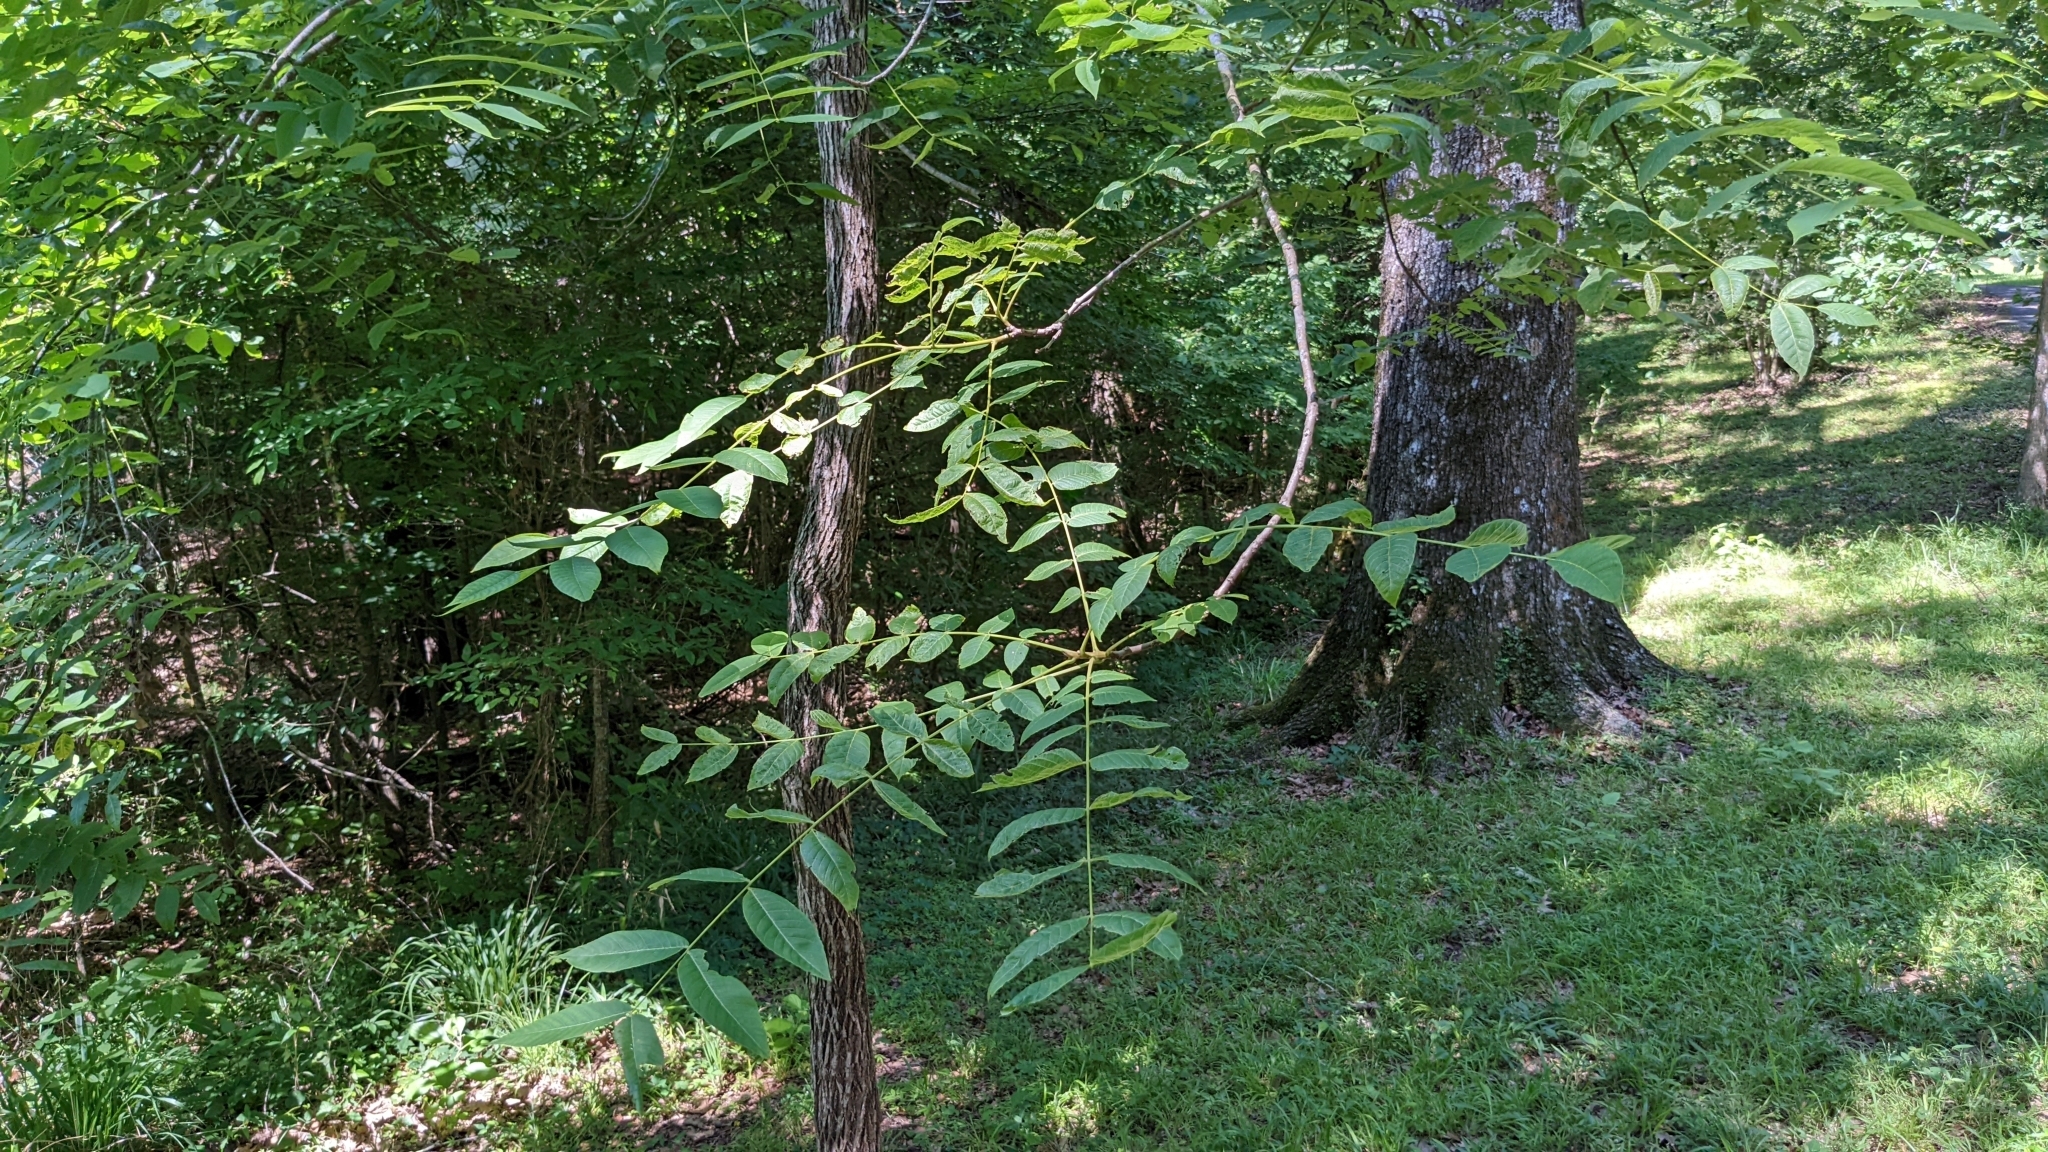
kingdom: Plantae
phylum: Tracheophyta
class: Magnoliopsida
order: Fagales
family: Juglandaceae
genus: Juglans
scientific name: Juglans nigra
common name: Black walnut
